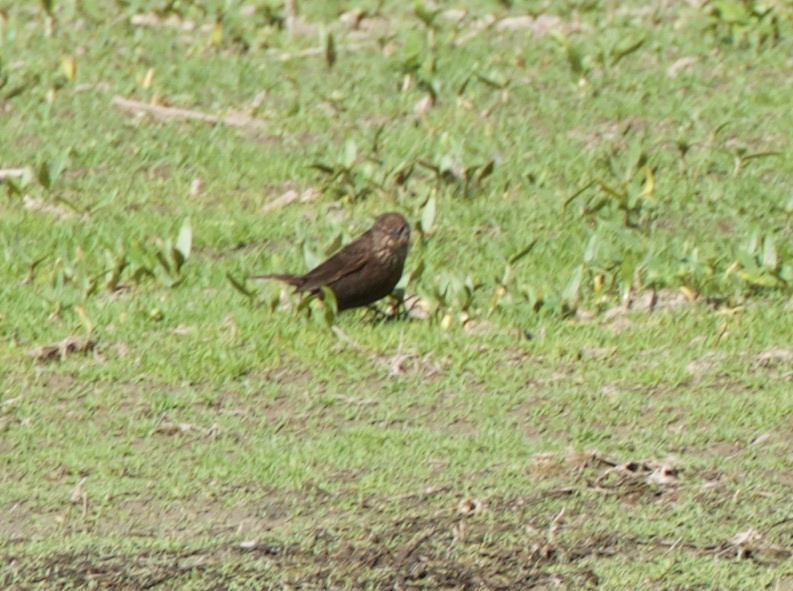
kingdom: Animalia
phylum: Chordata
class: Aves
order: Passeriformes
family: Icteridae
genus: Agelaius
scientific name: Agelaius phoeniceus
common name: Red-winged blackbird
